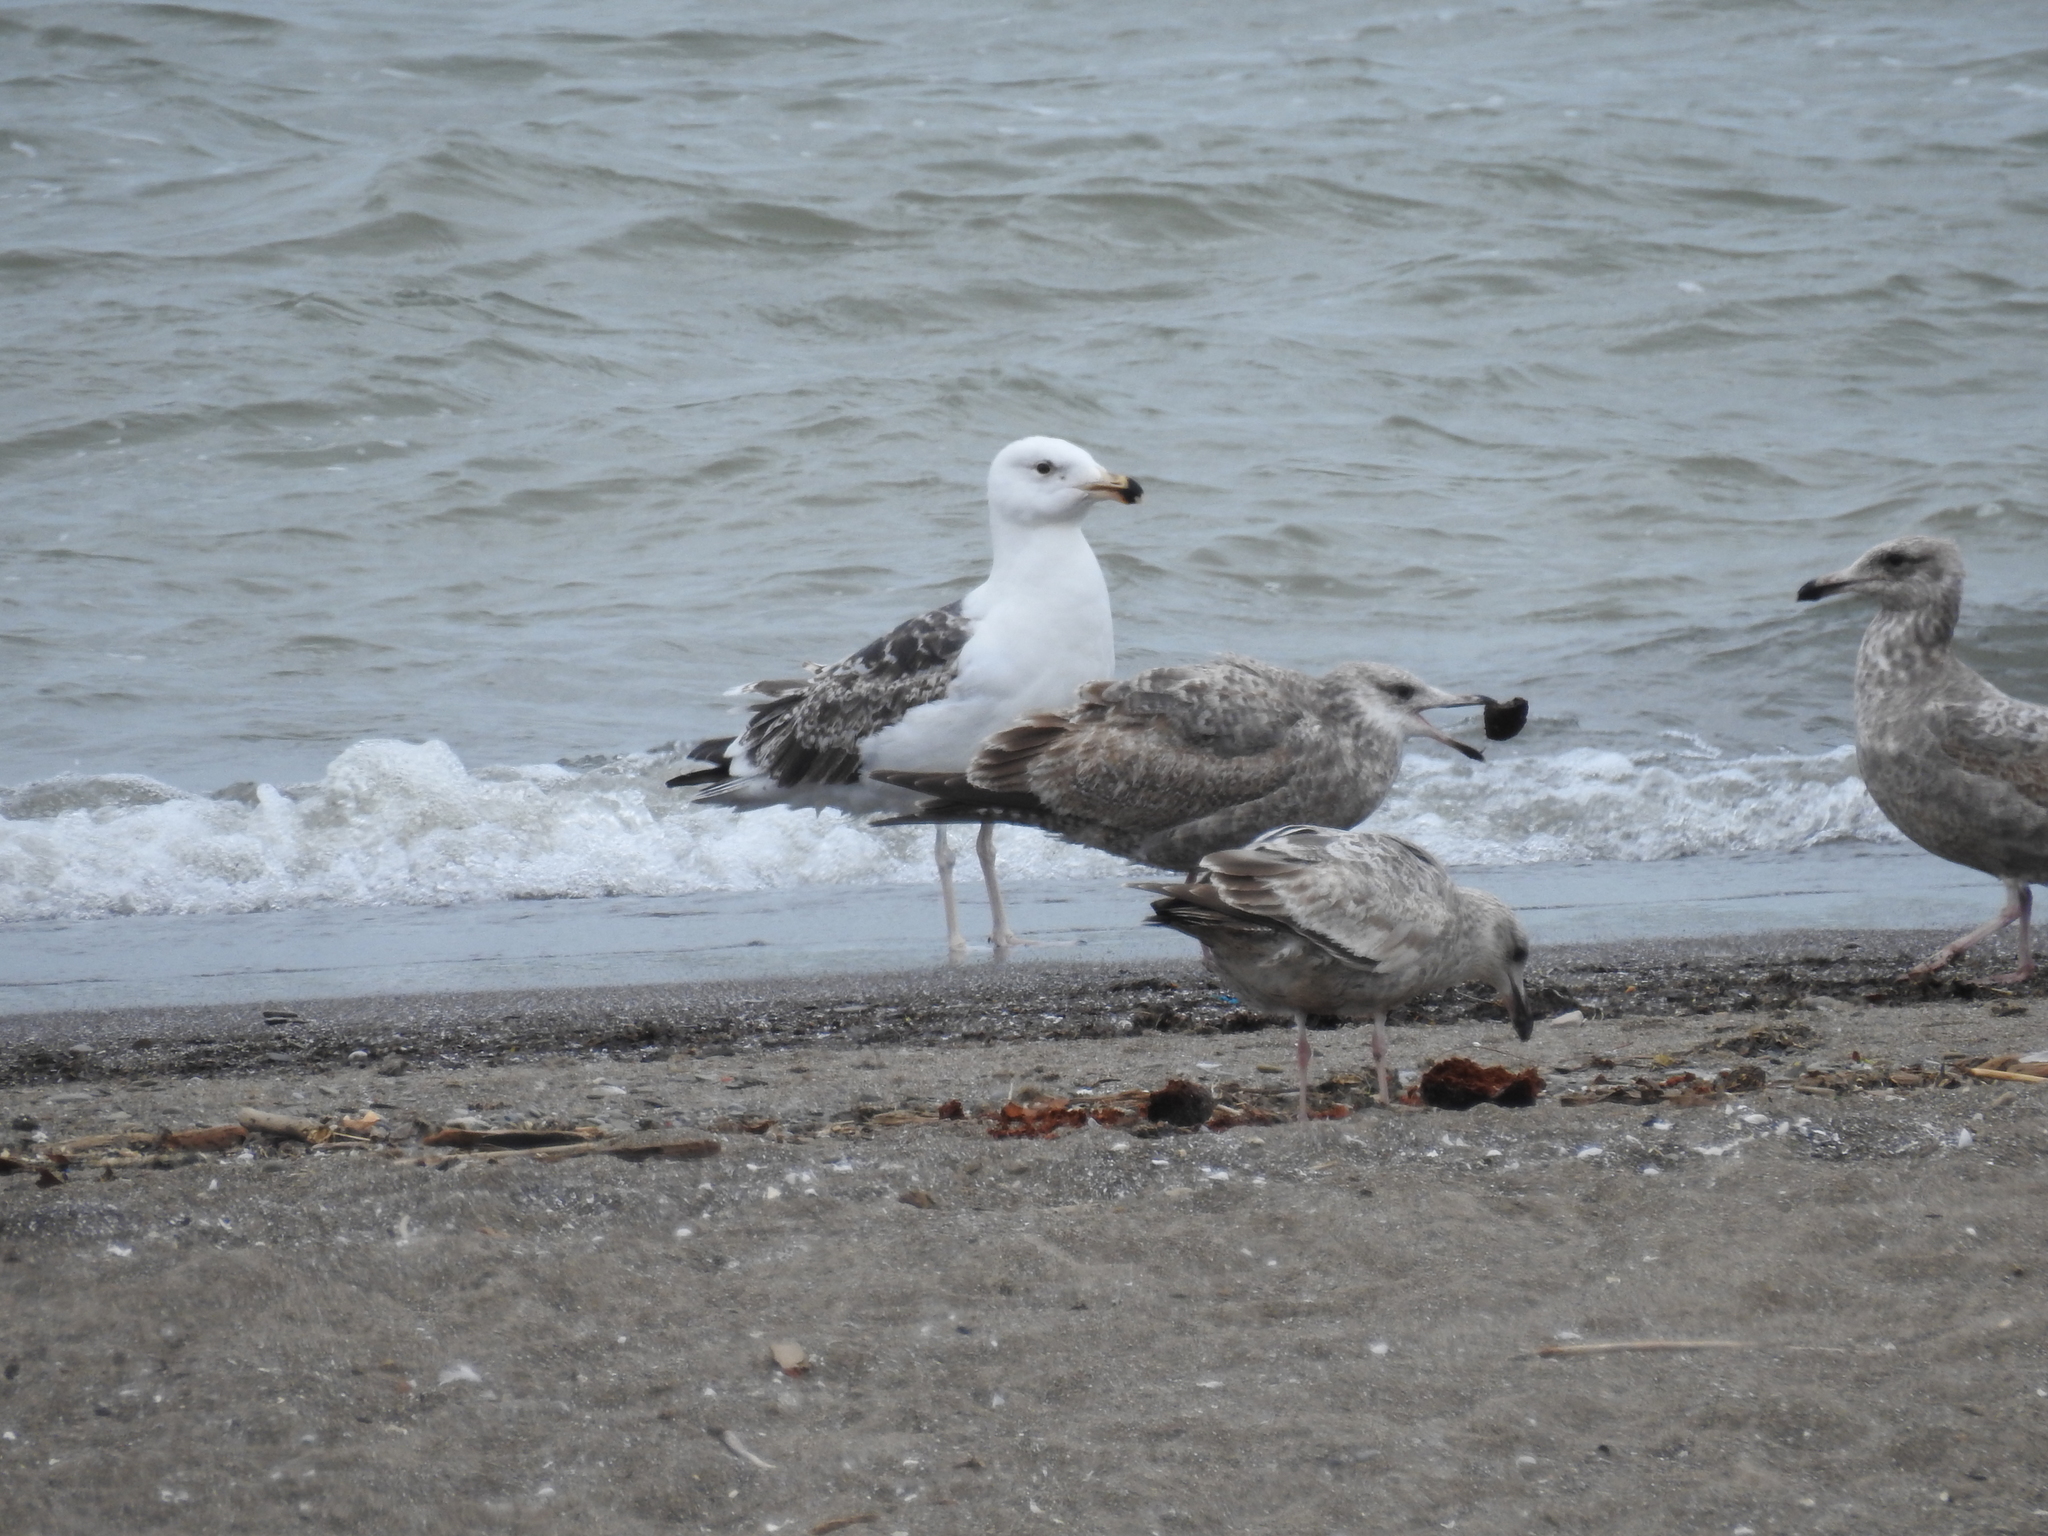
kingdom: Animalia
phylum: Chordata
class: Aves
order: Charadriiformes
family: Laridae
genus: Larus
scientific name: Larus marinus
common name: Great black-backed gull
